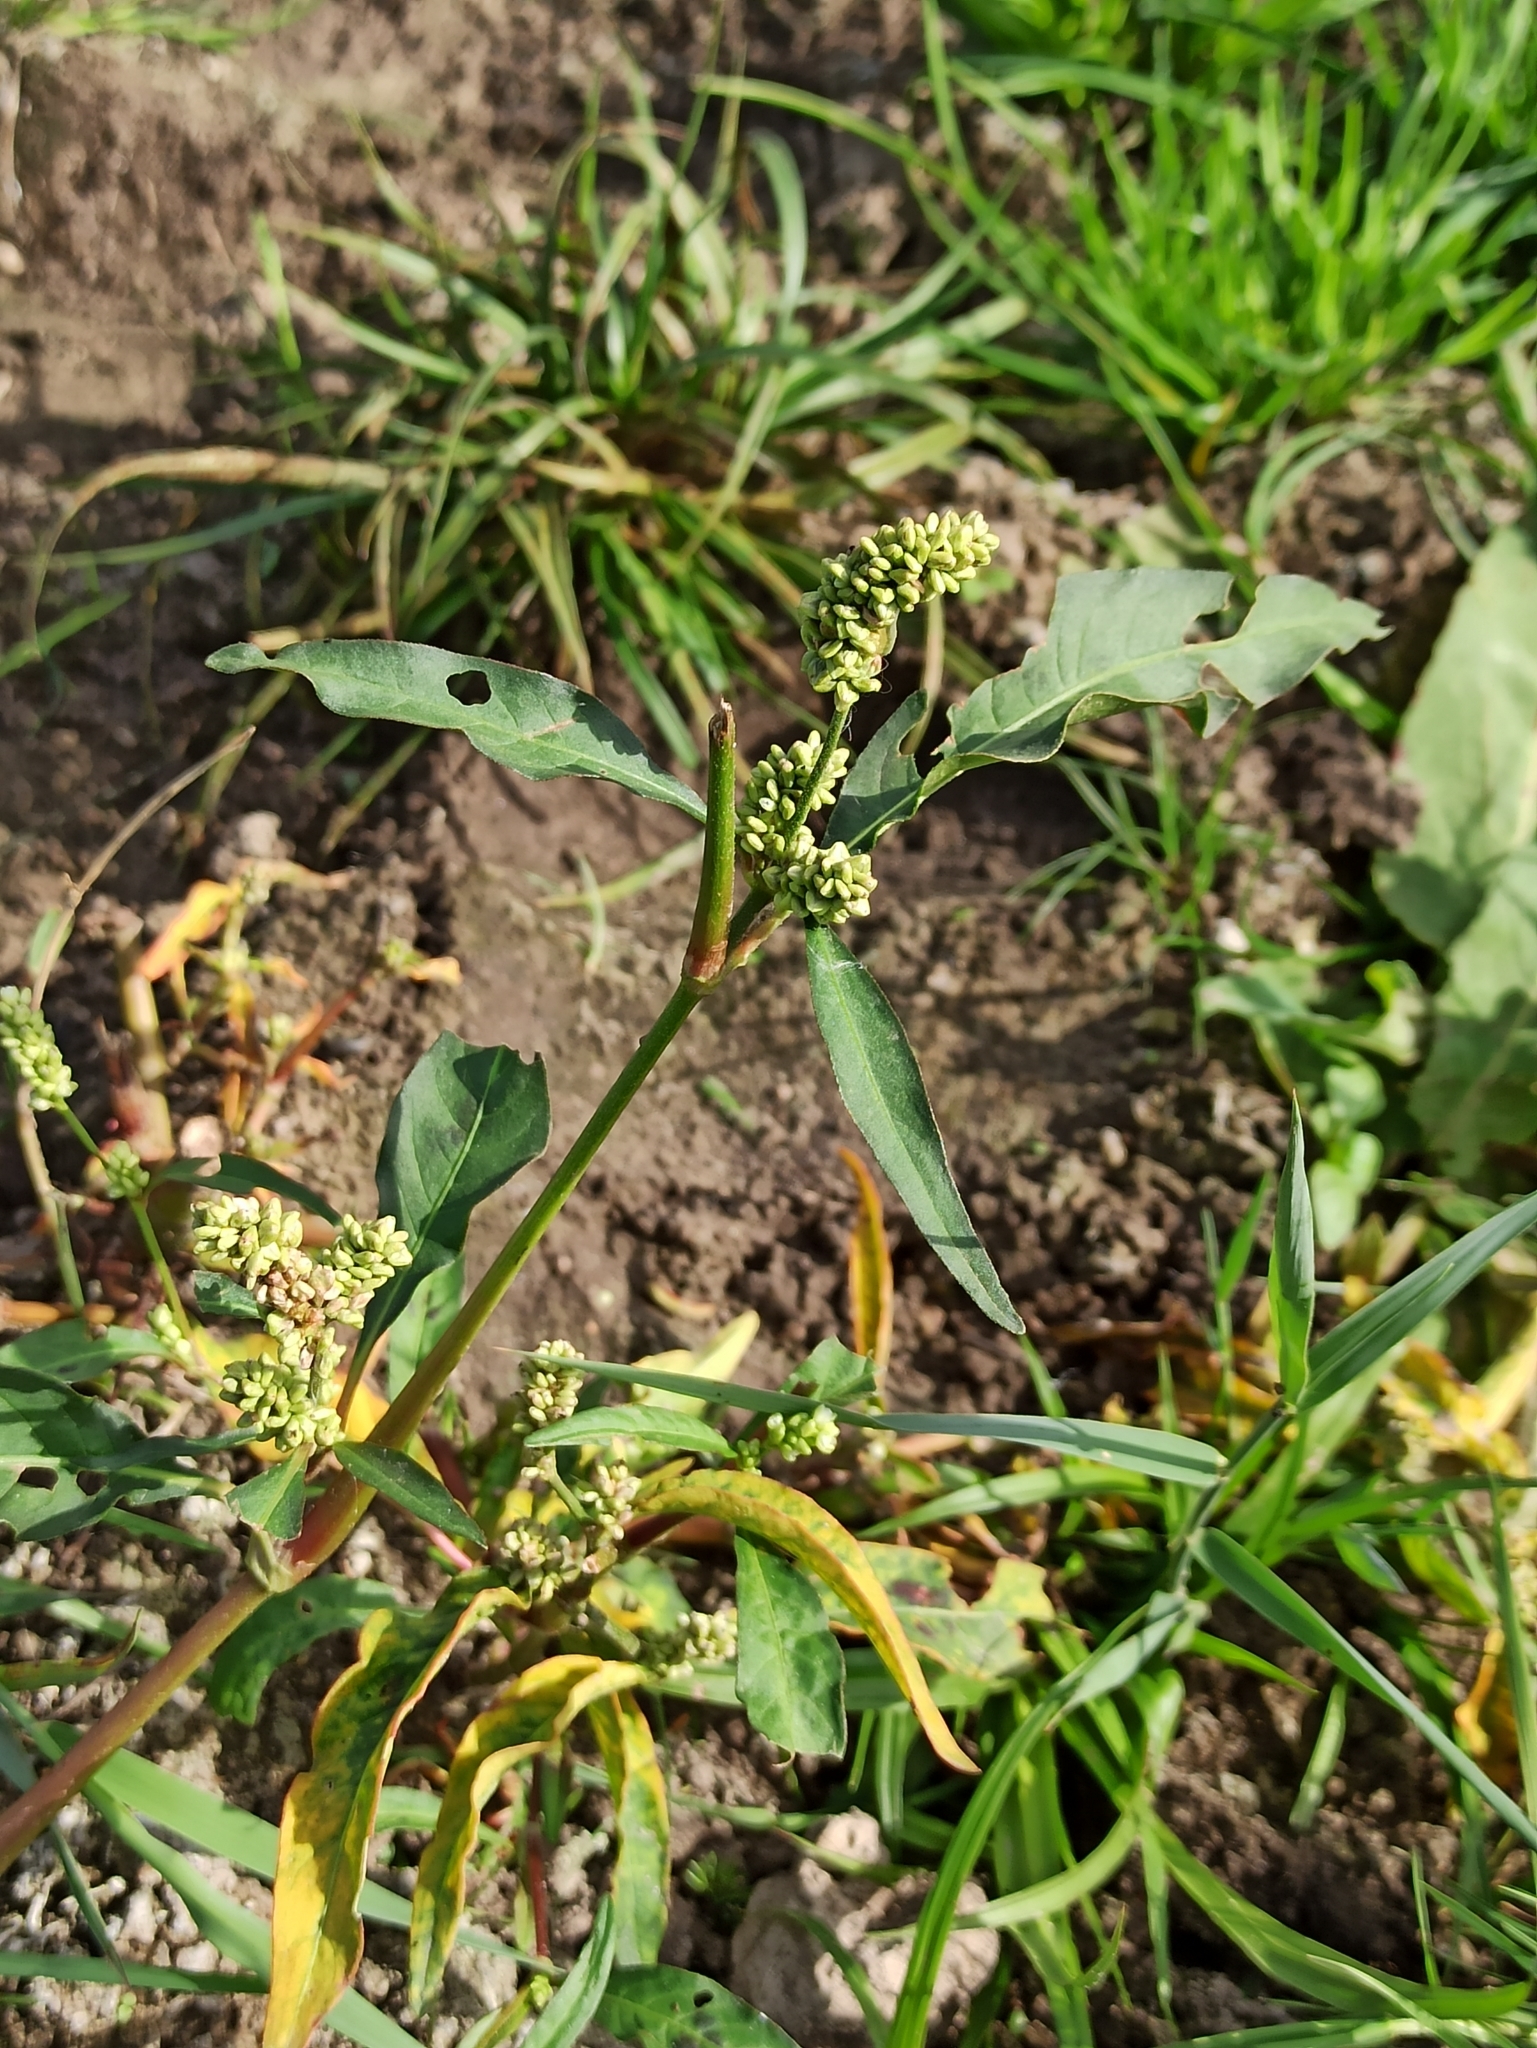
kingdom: Plantae
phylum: Tracheophyta
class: Magnoliopsida
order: Caryophyllales
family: Polygonaceae
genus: Persicaria
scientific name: Persicaria lapathifolia
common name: Curlytop knotweed
